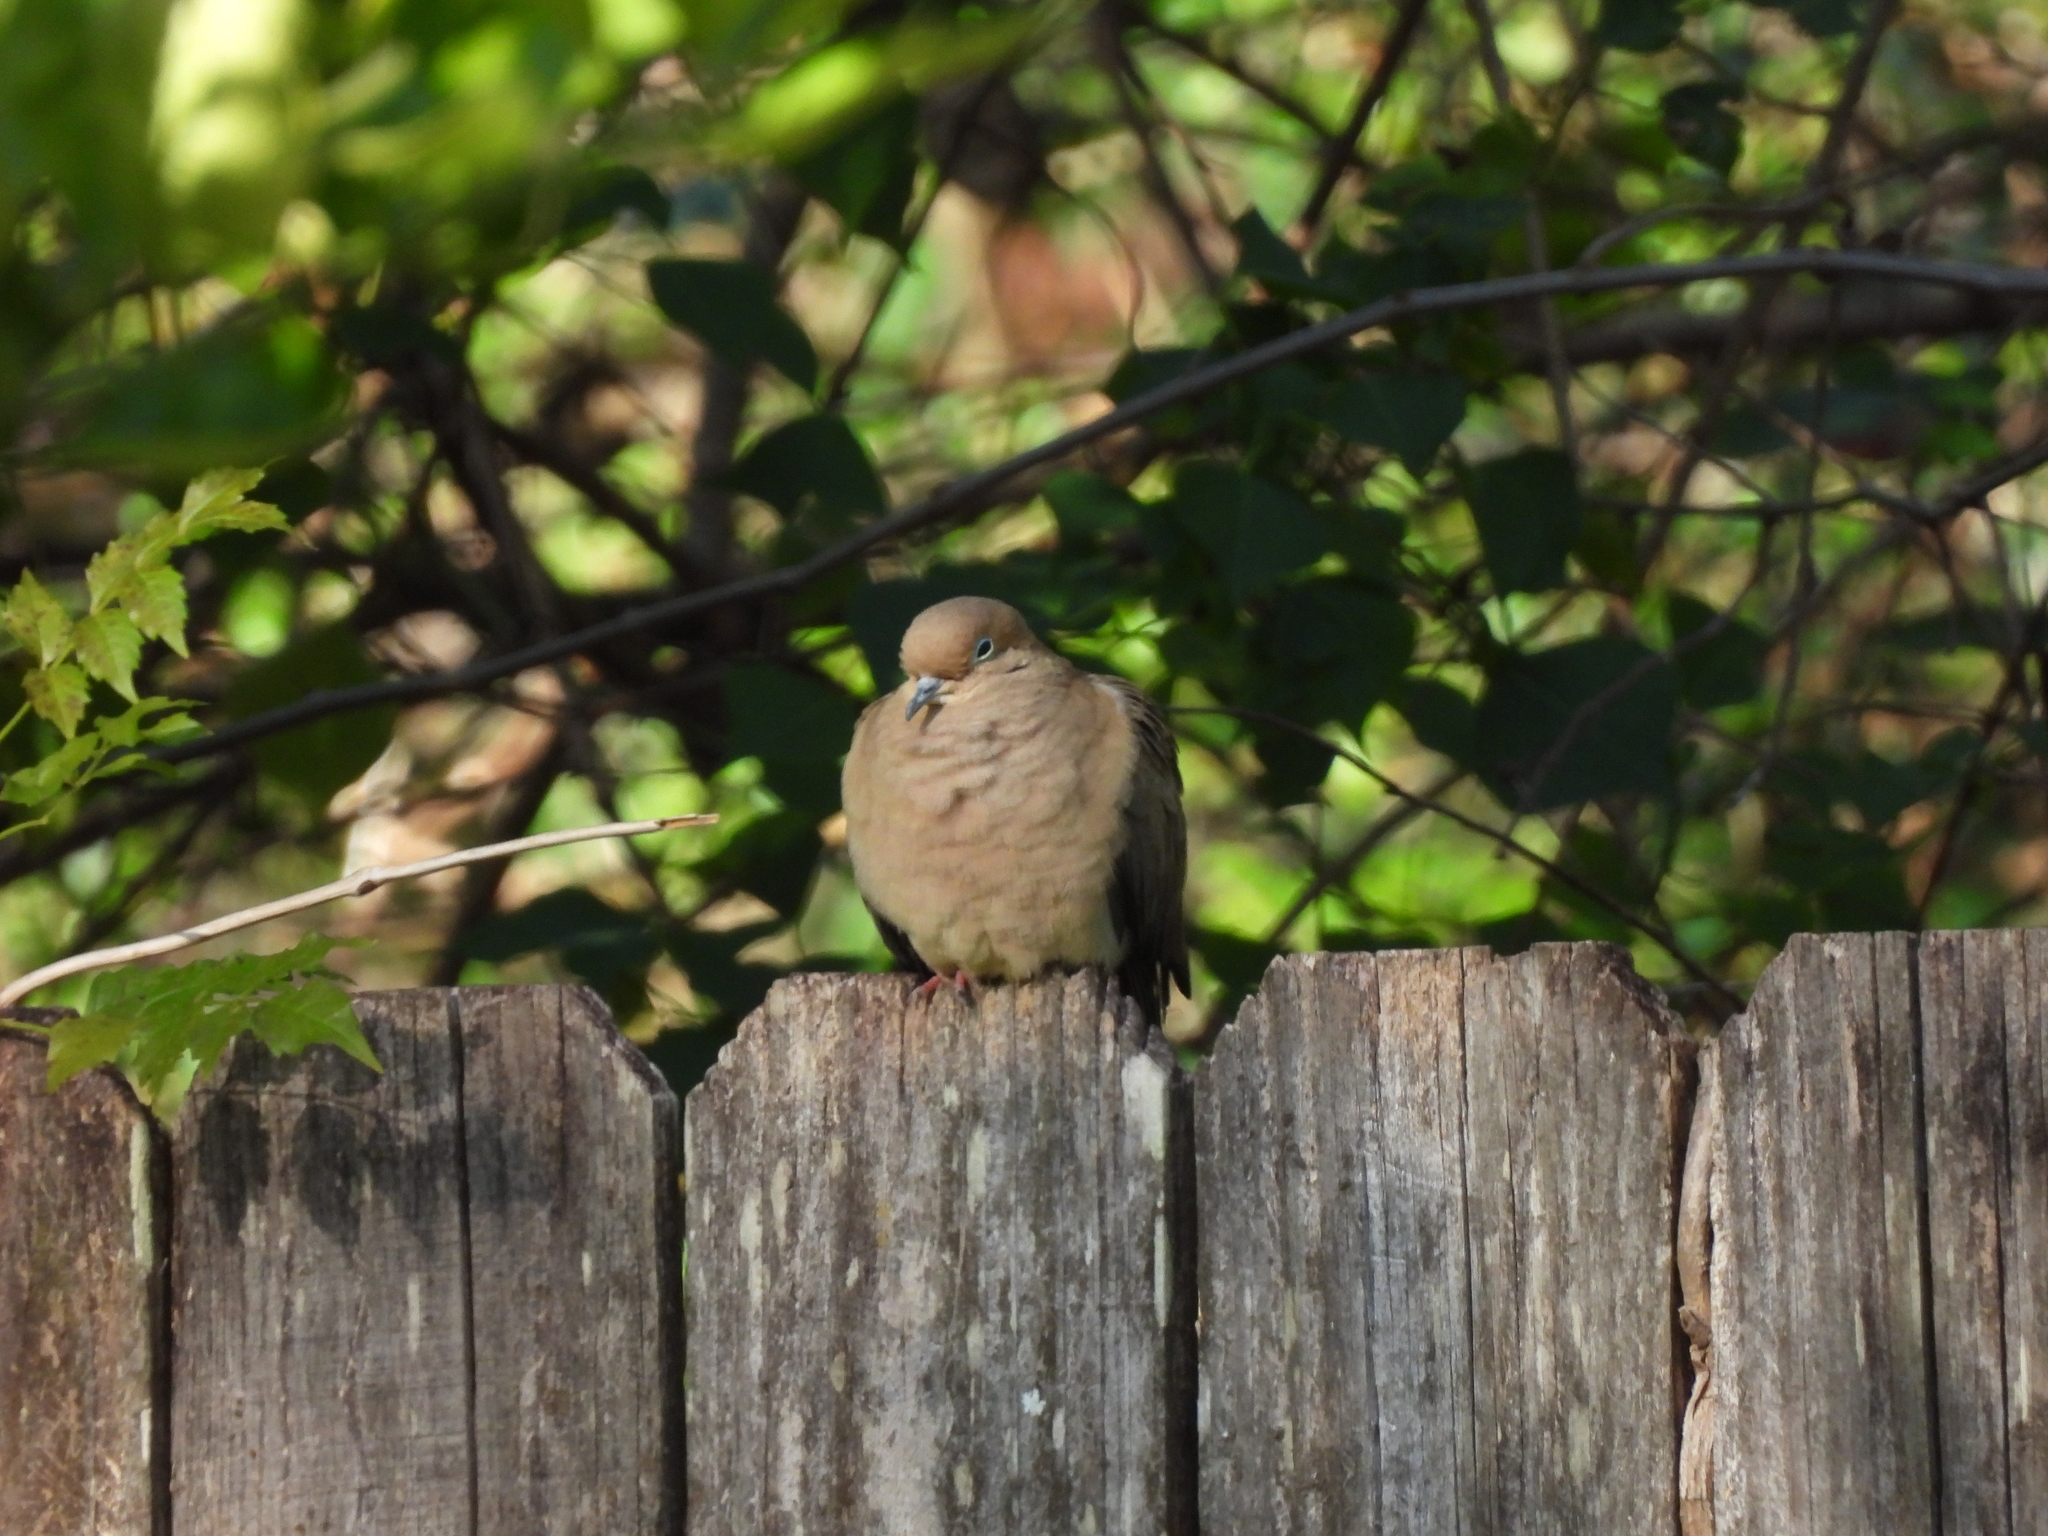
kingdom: Animalia
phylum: Chordata
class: Aves
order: Columbiformes
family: Columbidae
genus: Zenaida
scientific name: Zenaida macroura
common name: Mourning dove
